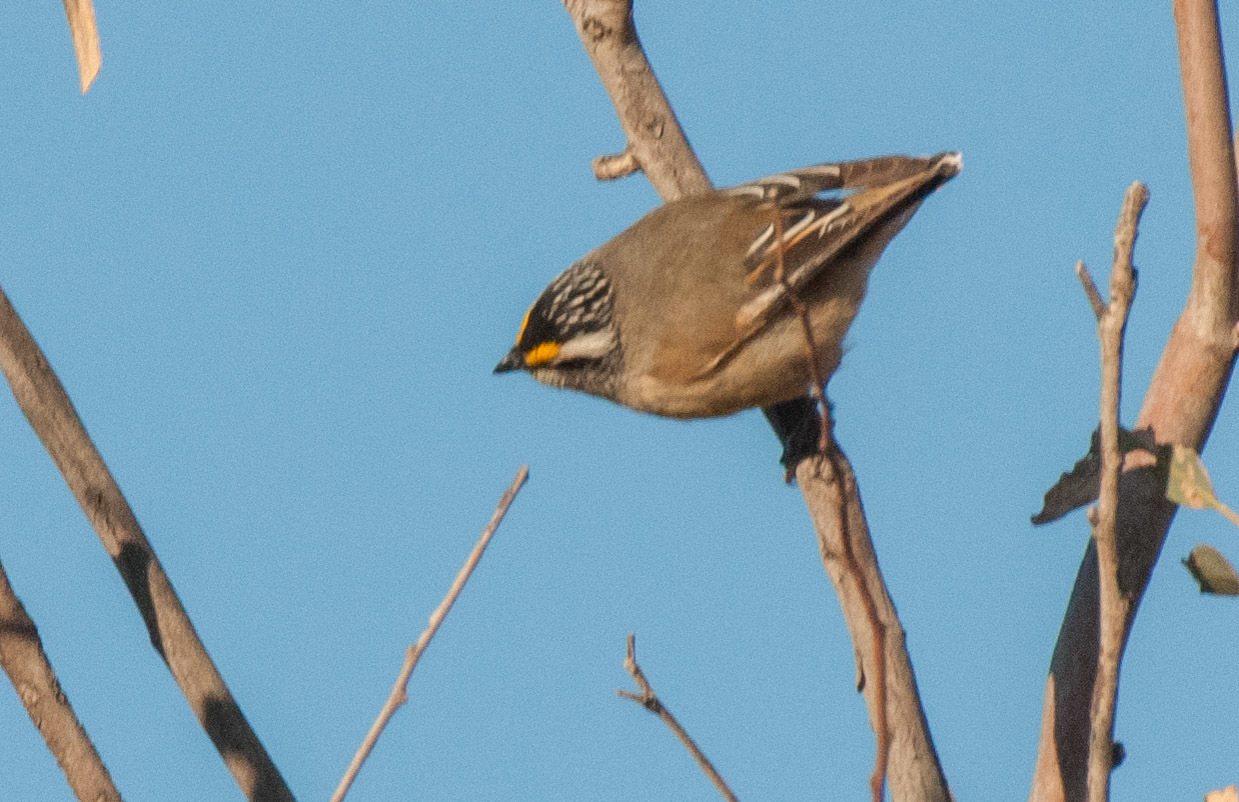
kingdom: Animalia
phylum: Chordata
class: Aves
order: Passeriformes
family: Pardalotidae
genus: Pardalotus
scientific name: Pardalotus striatus
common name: Striated pardalote
